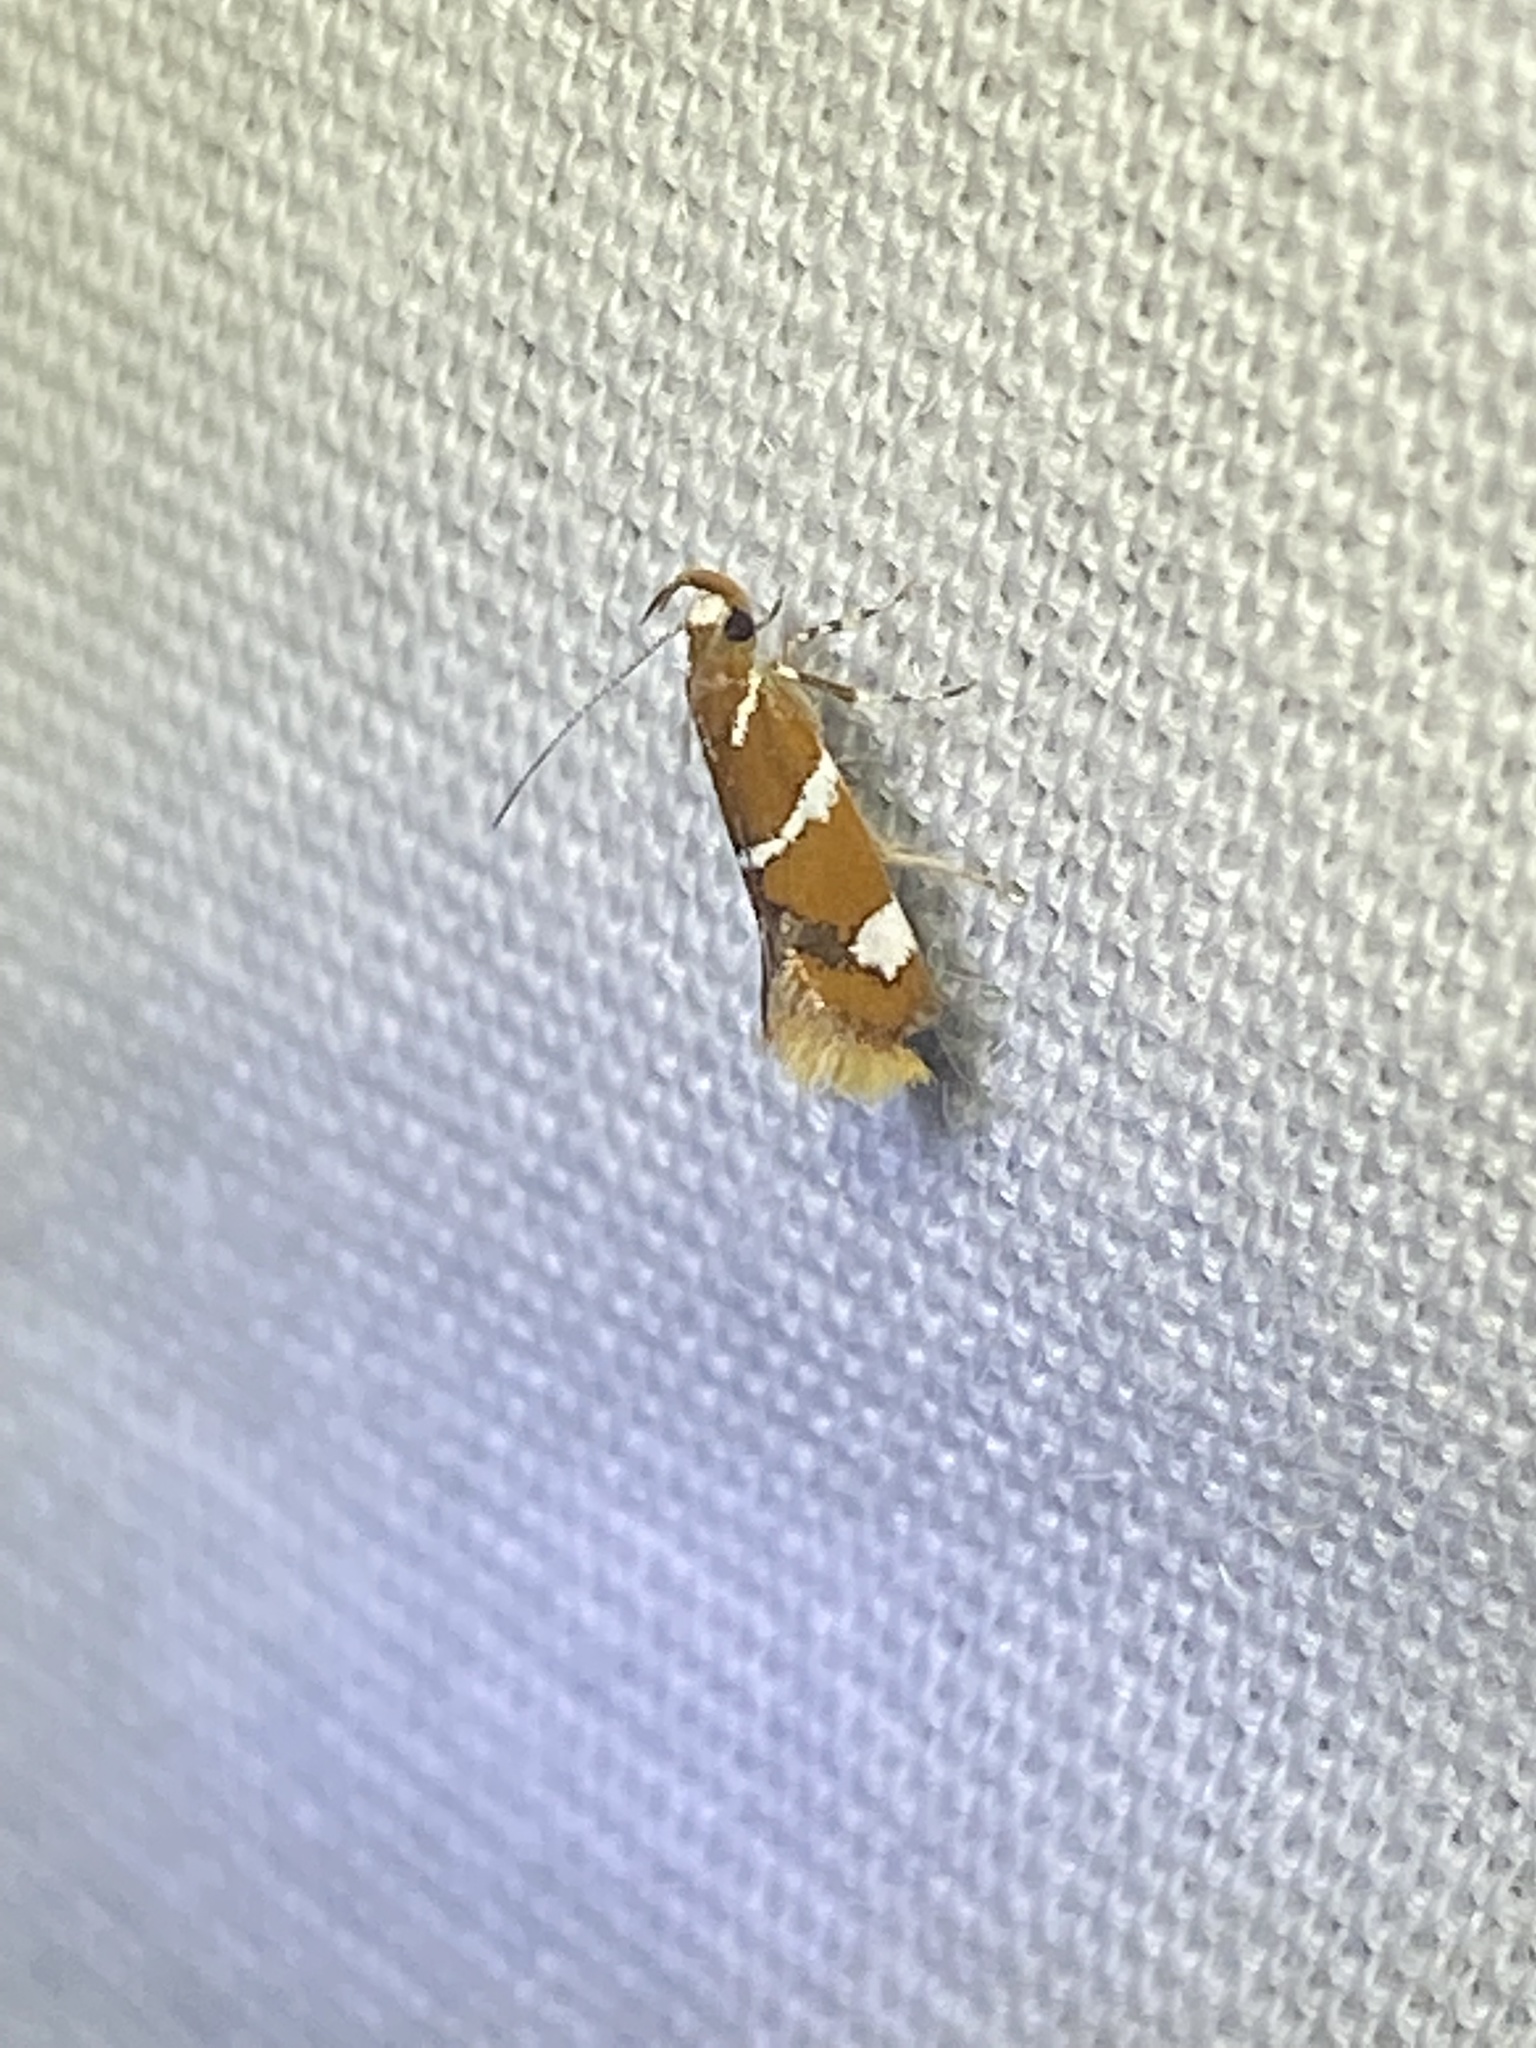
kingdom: Animalia
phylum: Arthropoda
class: Insecta
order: Lepidoptera
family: Oecophoridae
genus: Promalactis
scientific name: Promalactis suzukiella
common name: Moth
